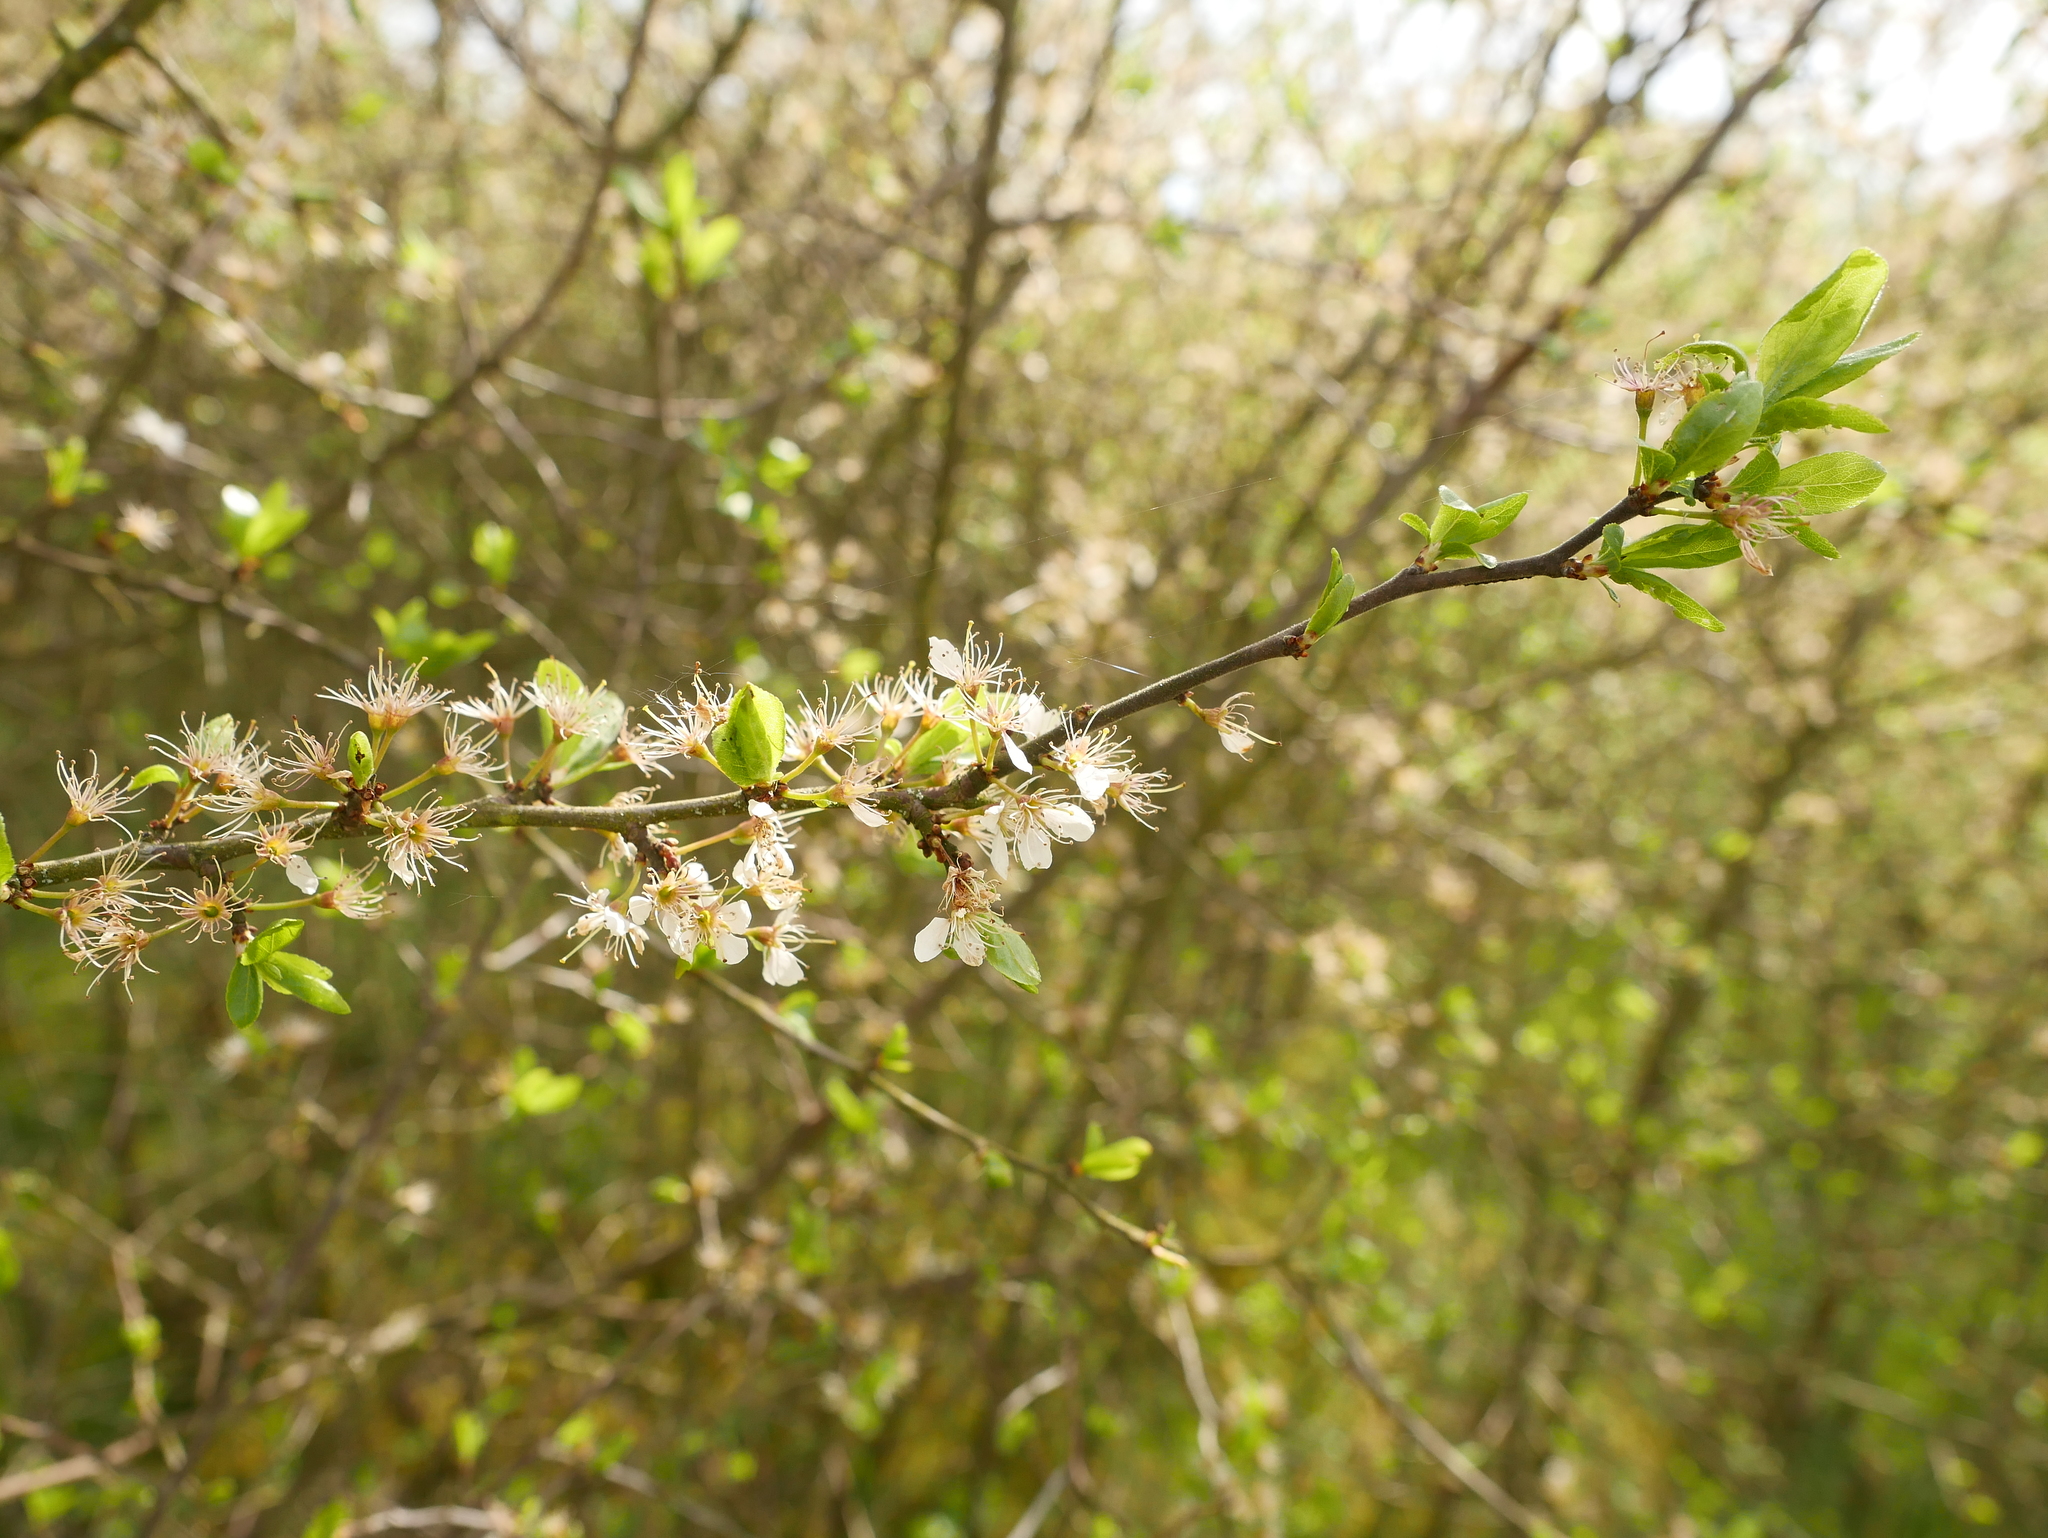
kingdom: Plantae
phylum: Tracheophyta
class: Magnoliopsida
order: Rosales
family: Rosaceae
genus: Prunus
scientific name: Prunus spinosa
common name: Blackthorn
